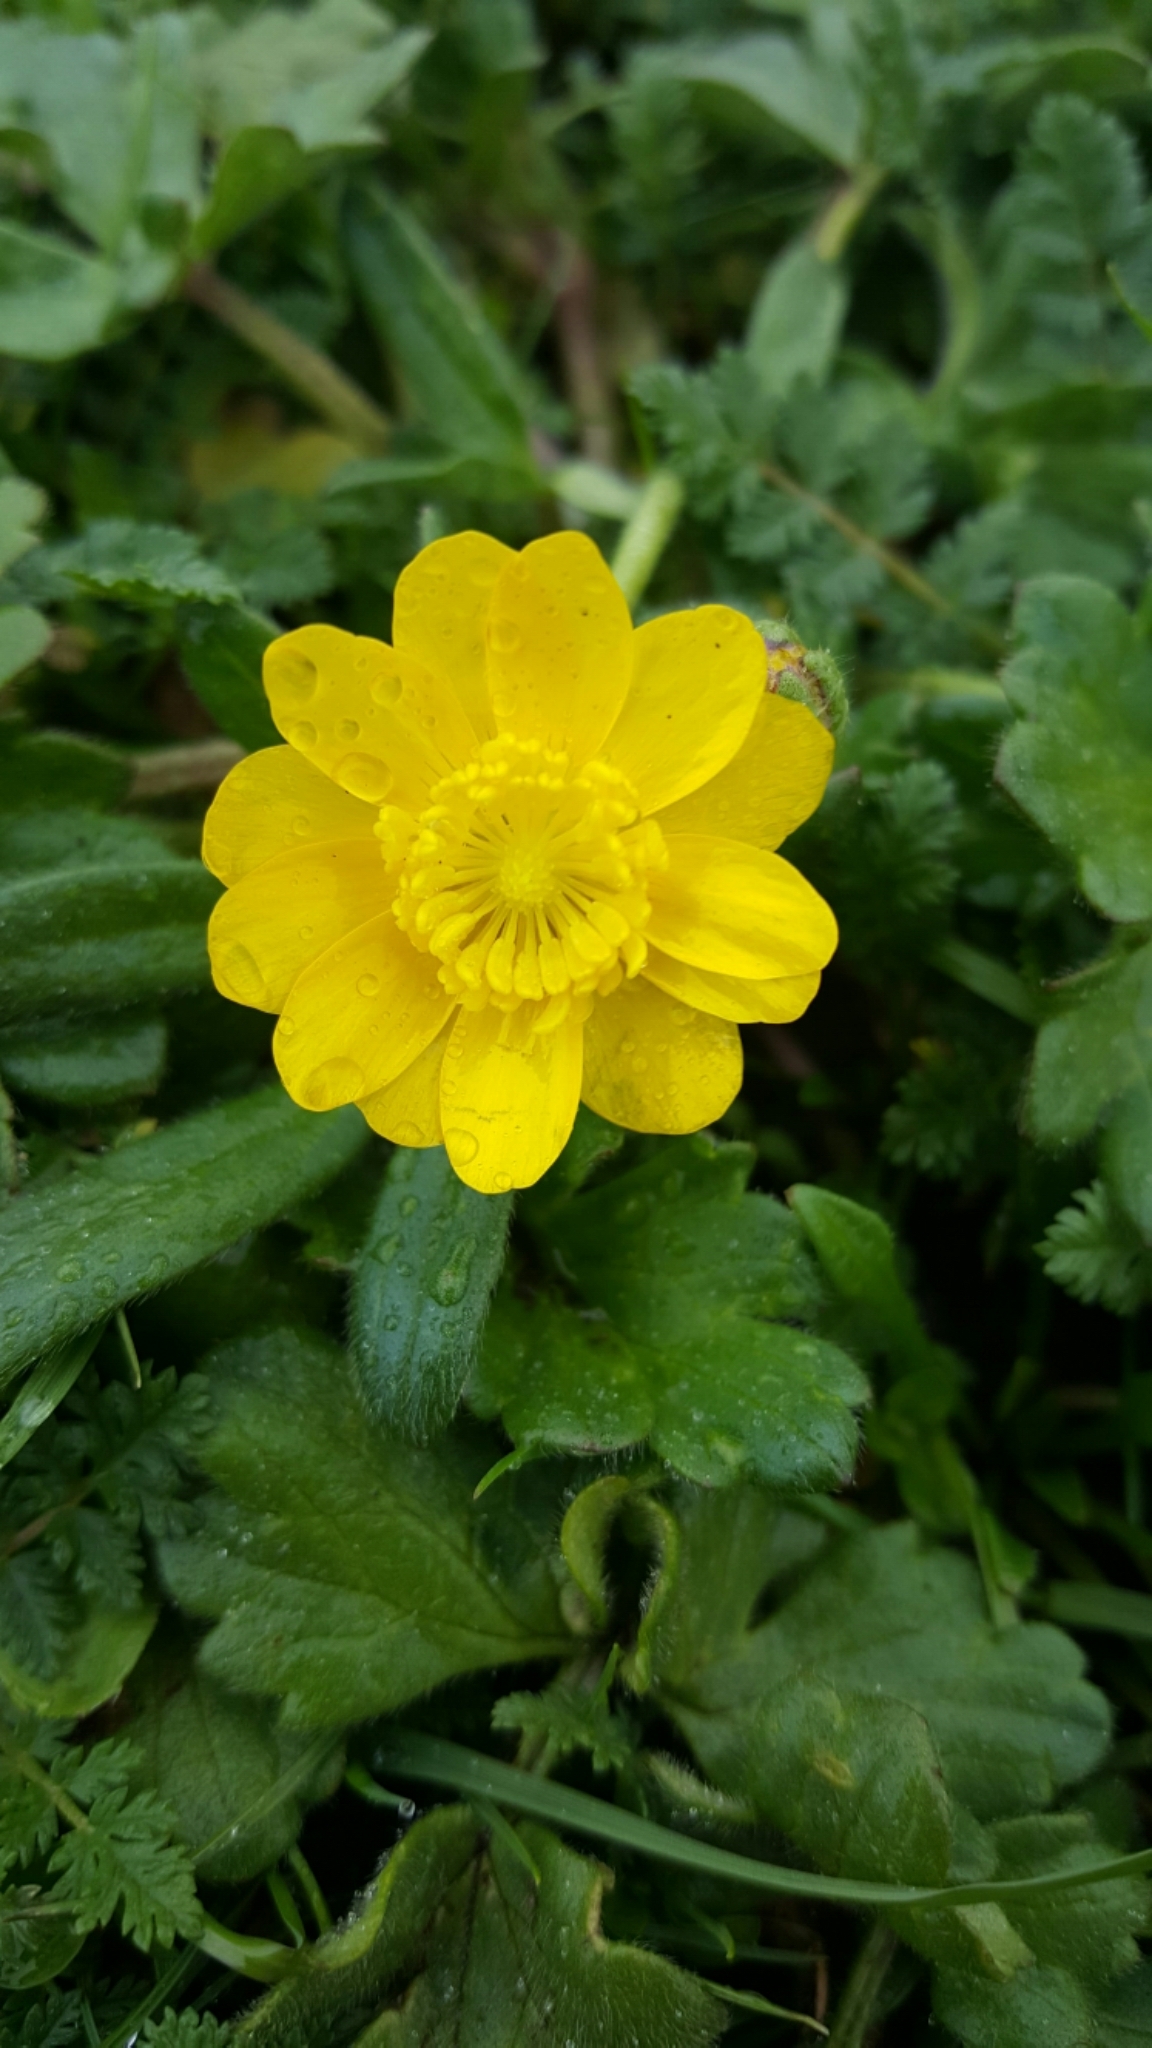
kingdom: Plantae
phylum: Tracheophyta
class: Magnoliopsida
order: Ranunculales
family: Ranunculaceae
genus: Ranunculus
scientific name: Ranunculus californicus
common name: California buttercup
